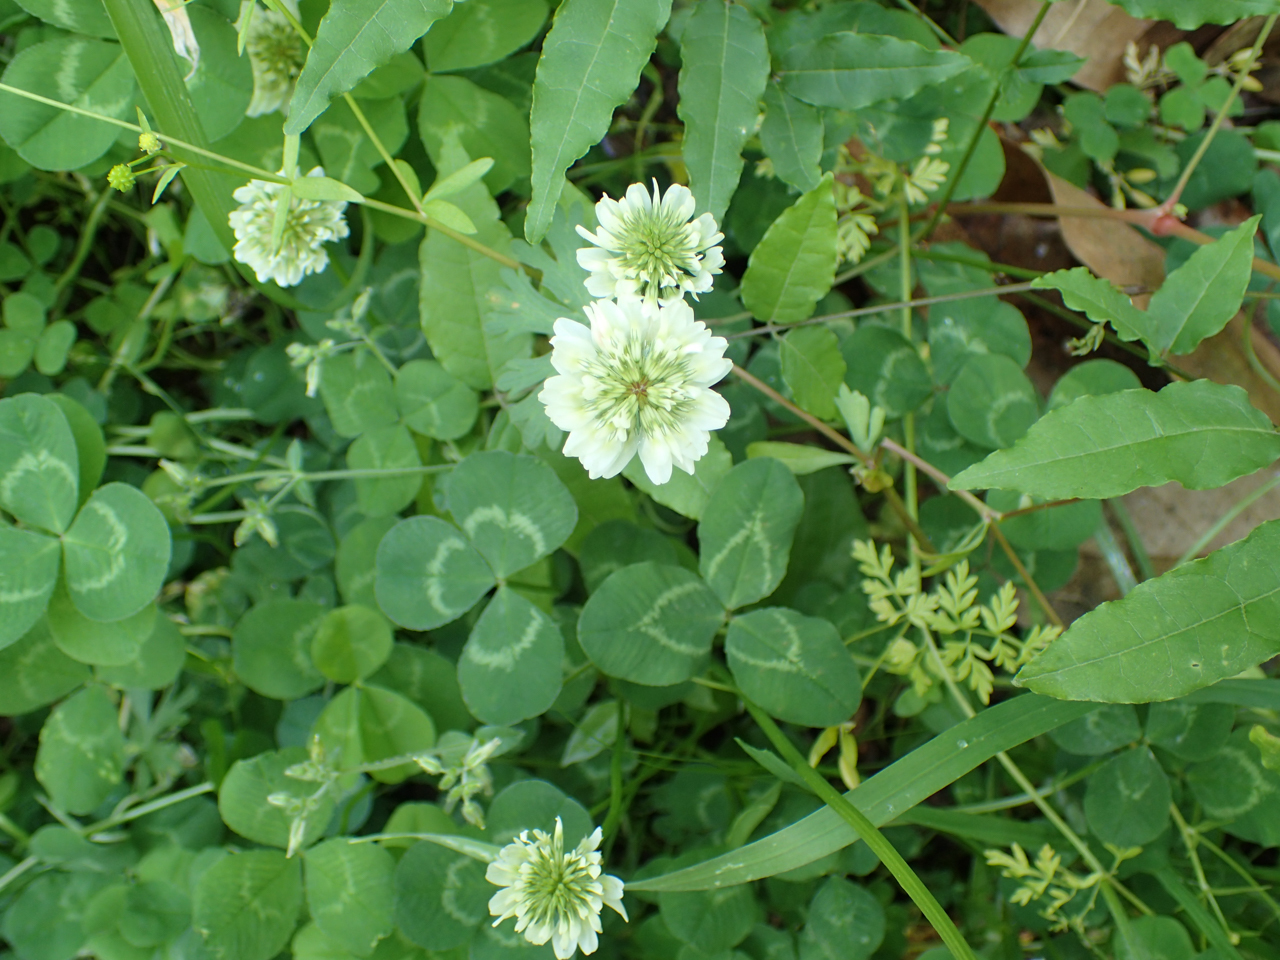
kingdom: Plantae
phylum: Tracheophyta
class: Magnoliopsida
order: Fabales
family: Fabaceae
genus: Trifolium
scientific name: Trifolium repens
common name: White clover
